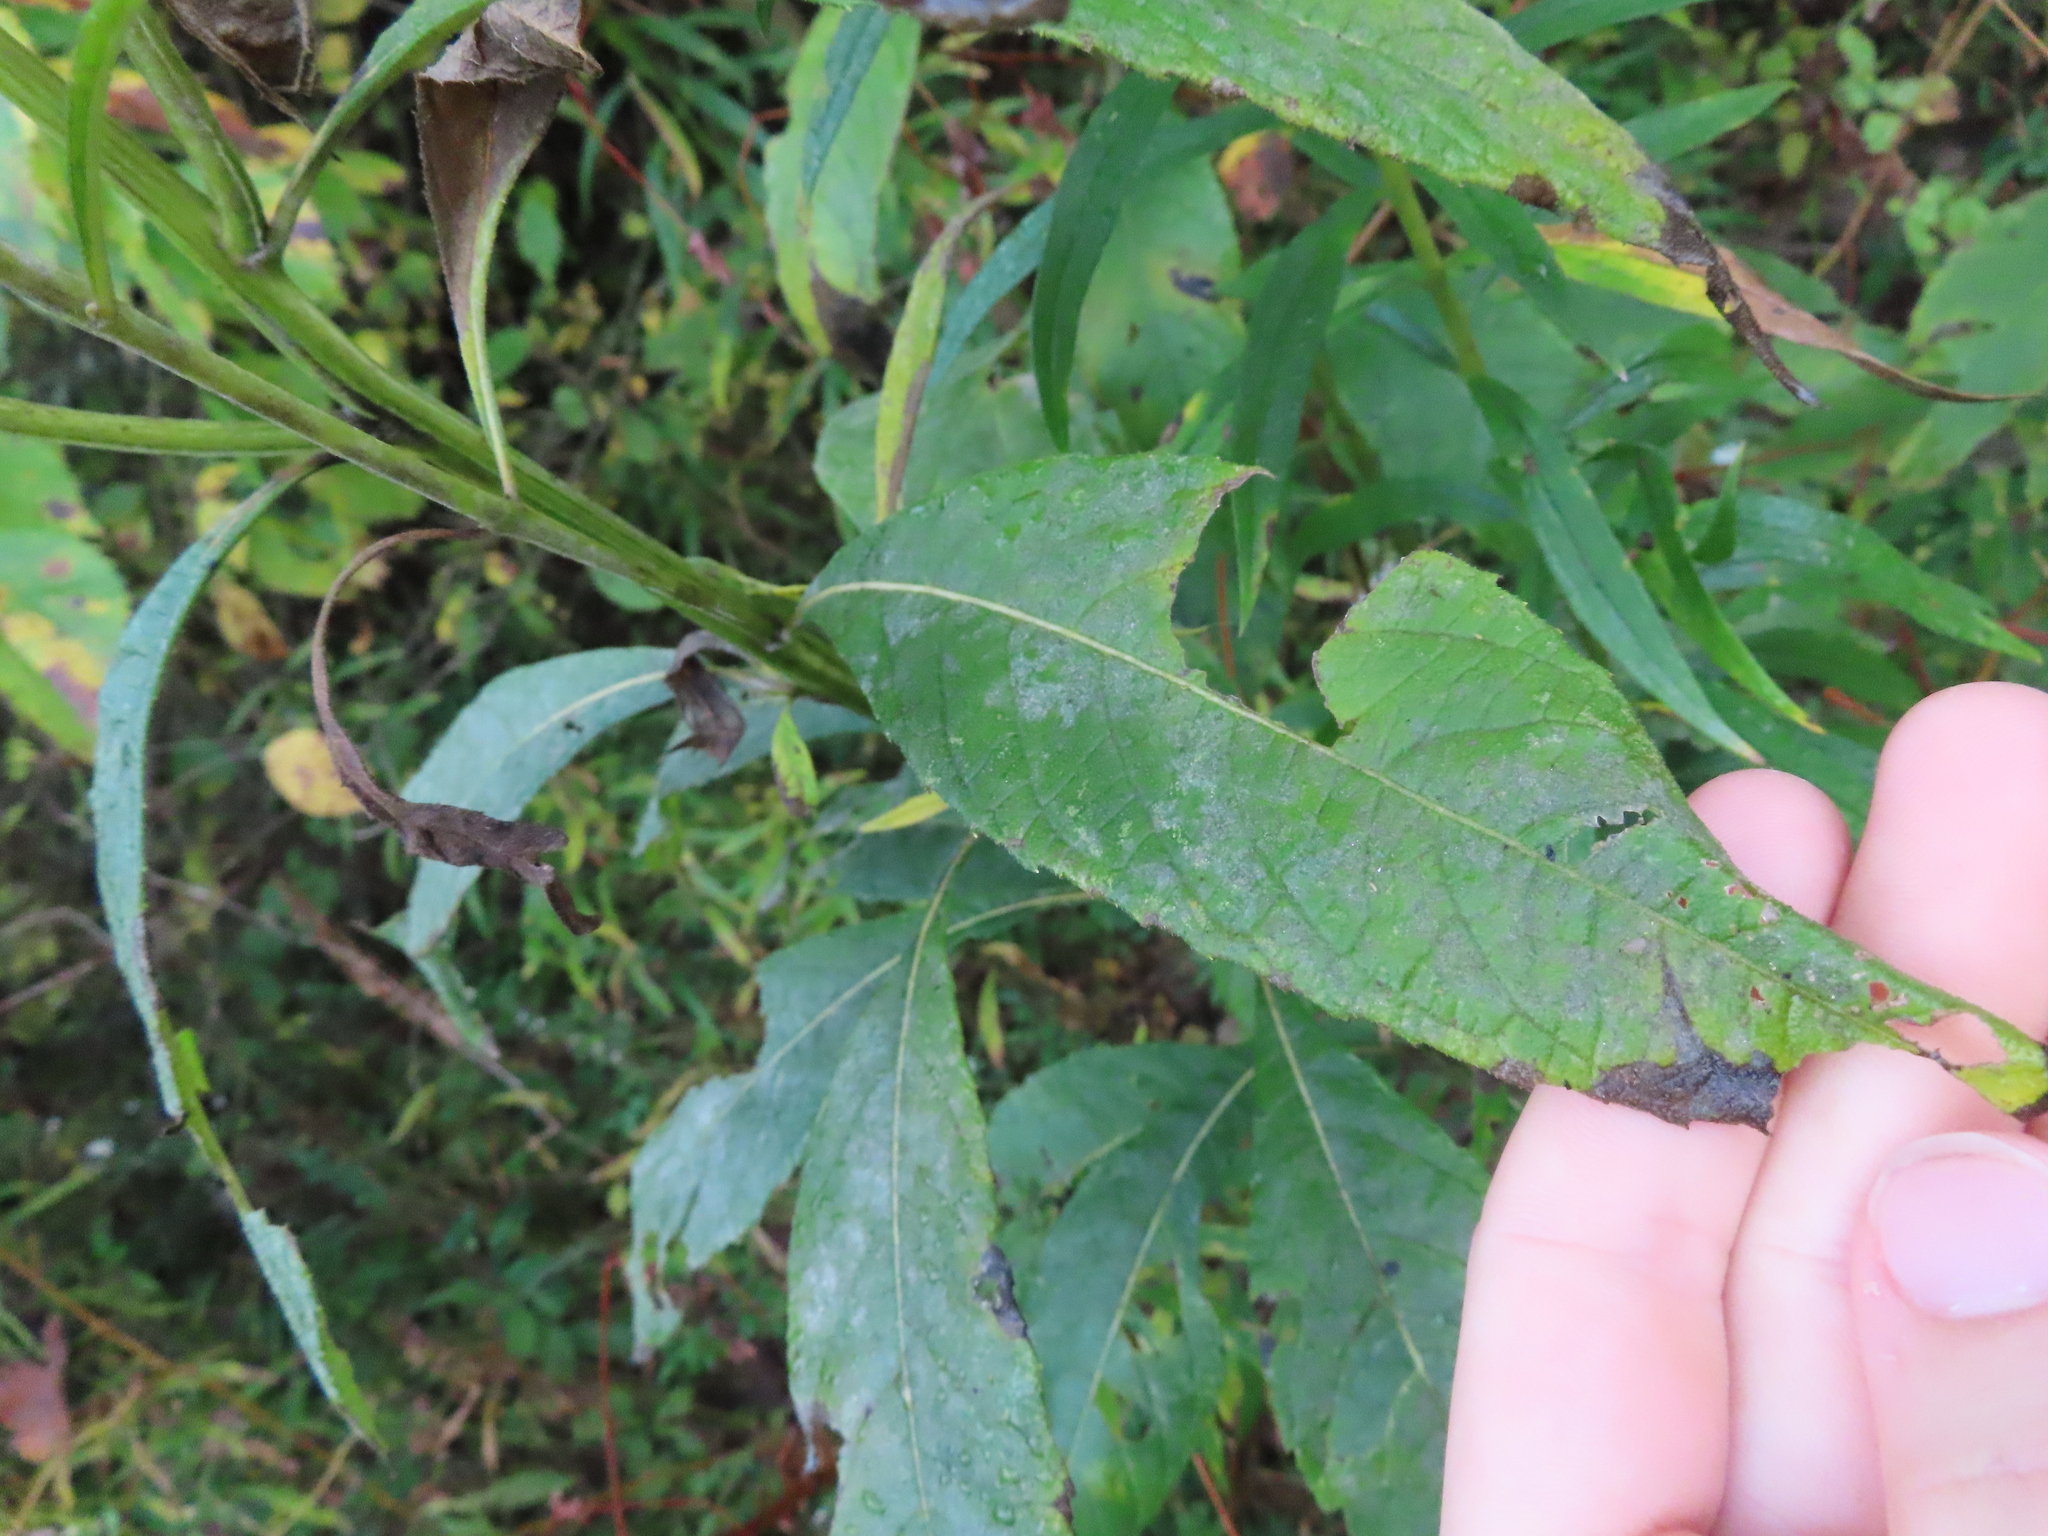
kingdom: Plantae
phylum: Tracheophyta
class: Magnoliopsida
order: Asterales
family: Asteraceae
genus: Verbesina
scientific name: Verbesina alternifolia
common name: Wingstem
